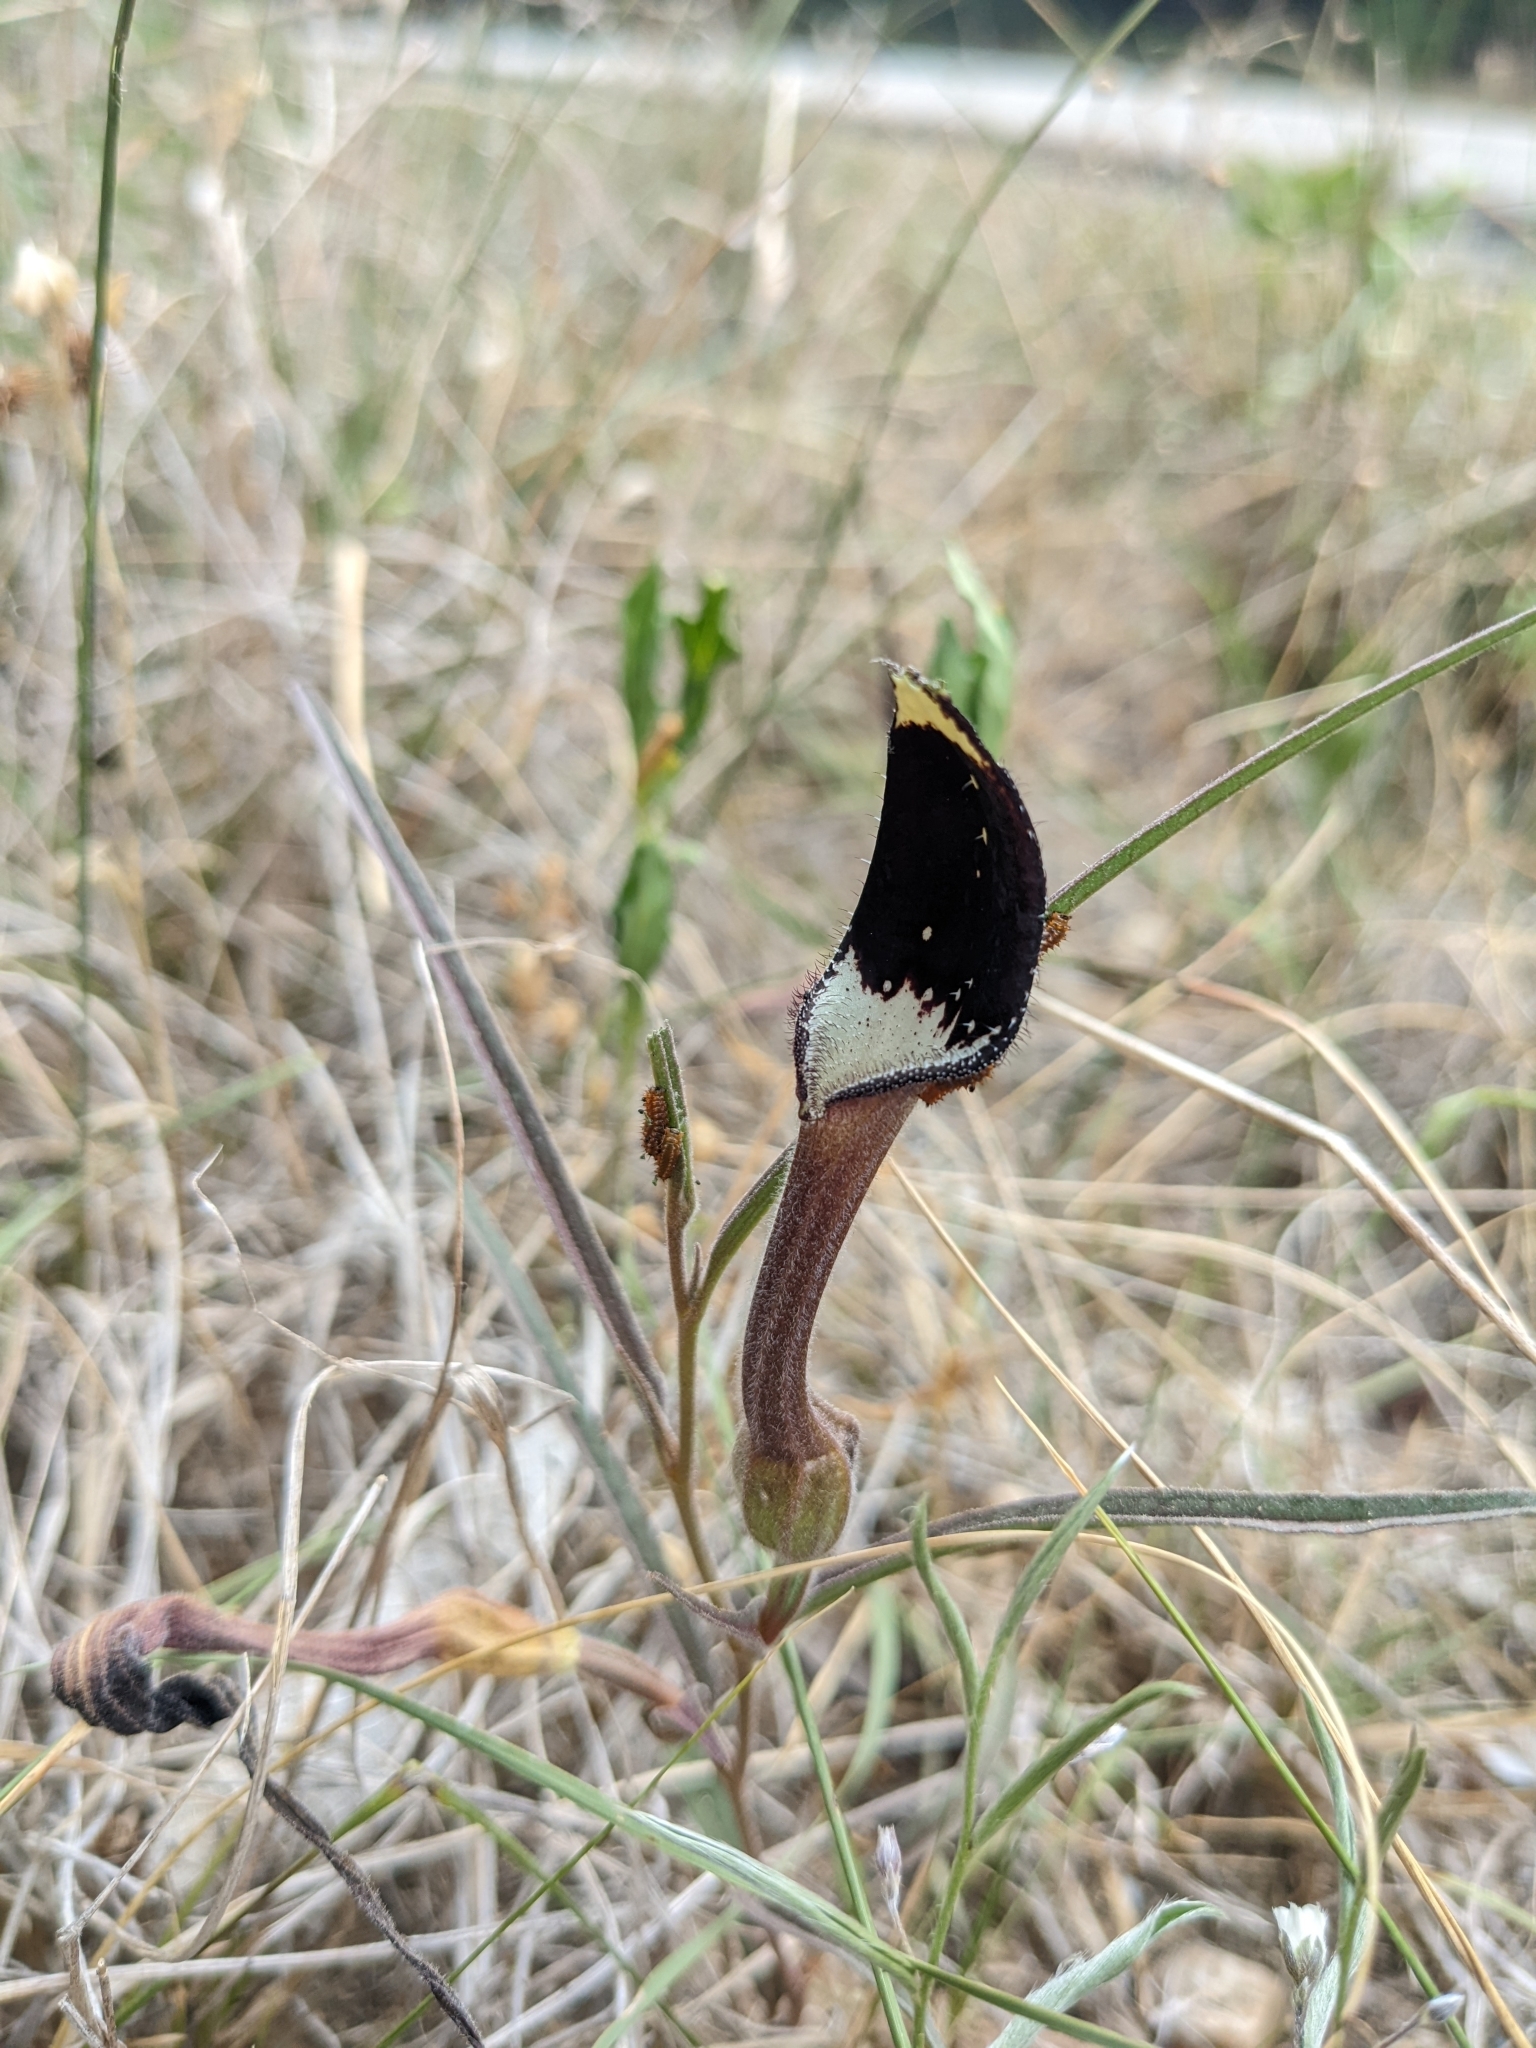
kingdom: Plantae
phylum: Tracheophyta
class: Magnoliopsida
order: Piperales
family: Aristolochiaceae
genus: Aristolochia
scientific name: Aristolochia erecta
